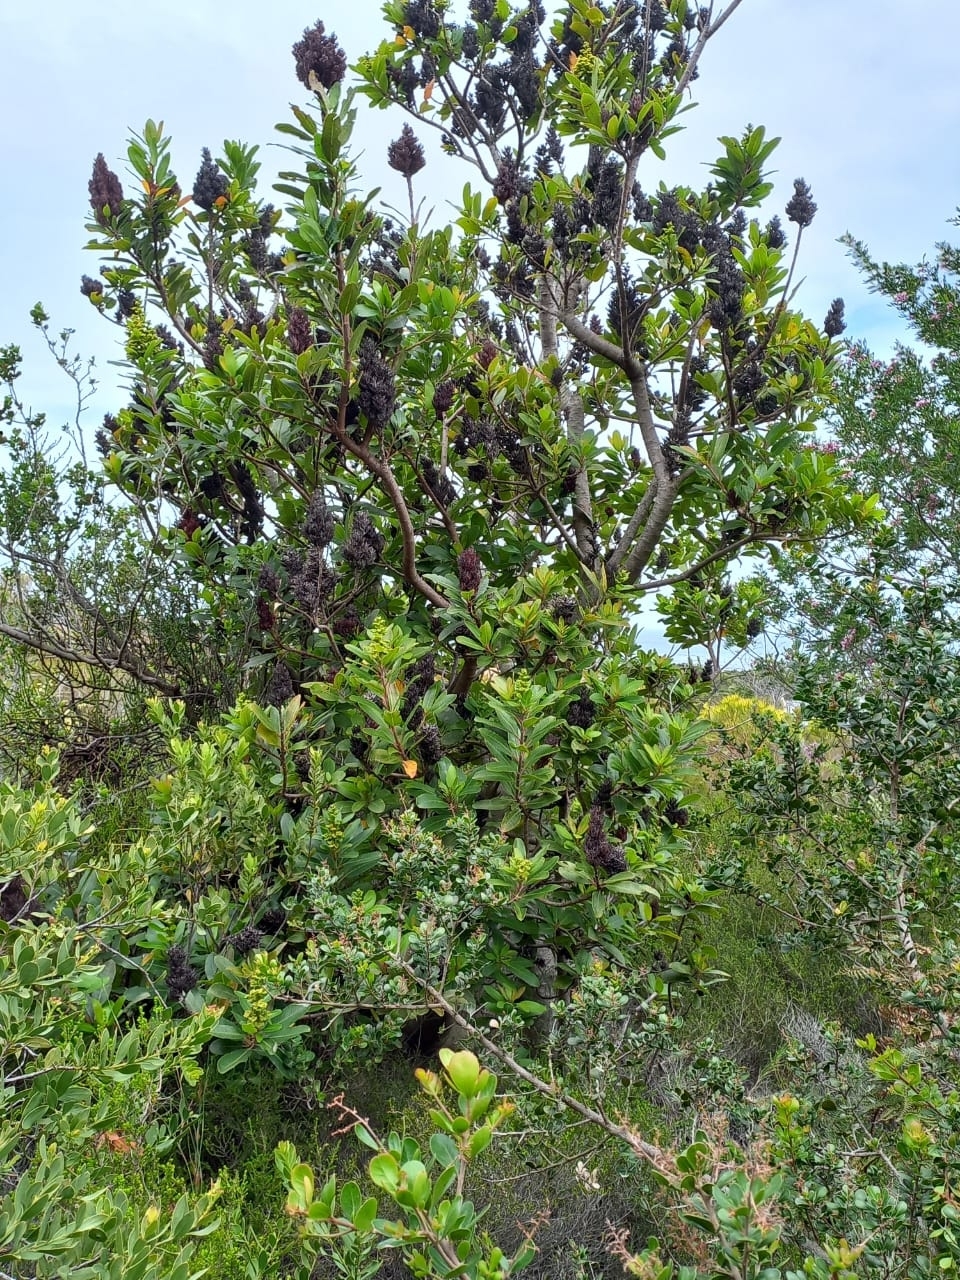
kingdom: Plantae
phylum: Tracheophyta
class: Magnoliopsida
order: Sapindales
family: Anacardiaceae
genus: Laurophyllus
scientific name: Laurophyllus capensis
